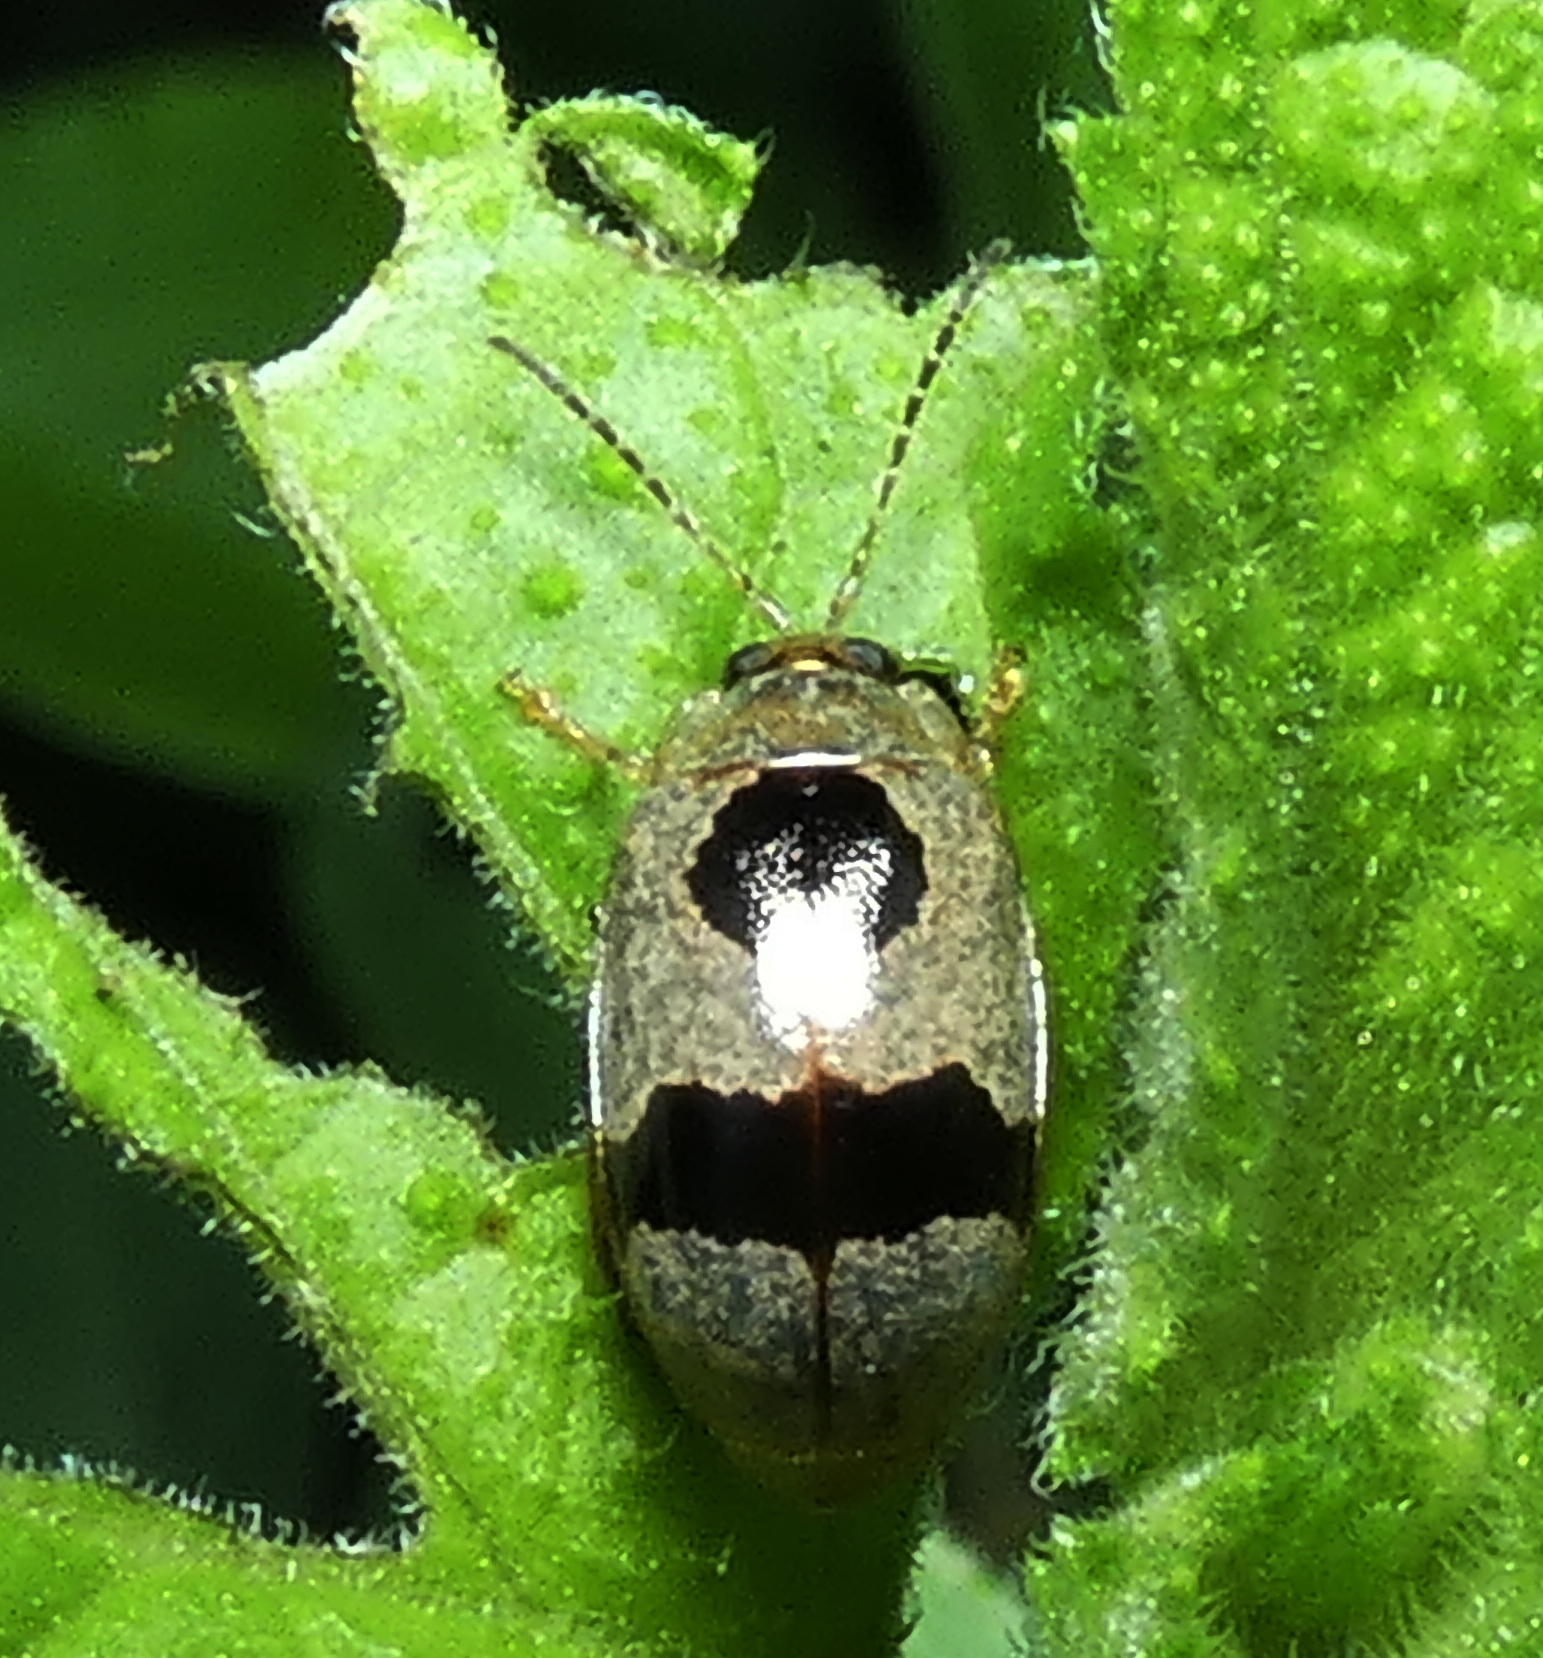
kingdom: Animalia
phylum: Arthropoda
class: Insecta
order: Coleoptera
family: Chrysomelidae
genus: Alagoasa
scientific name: Alagoasa
